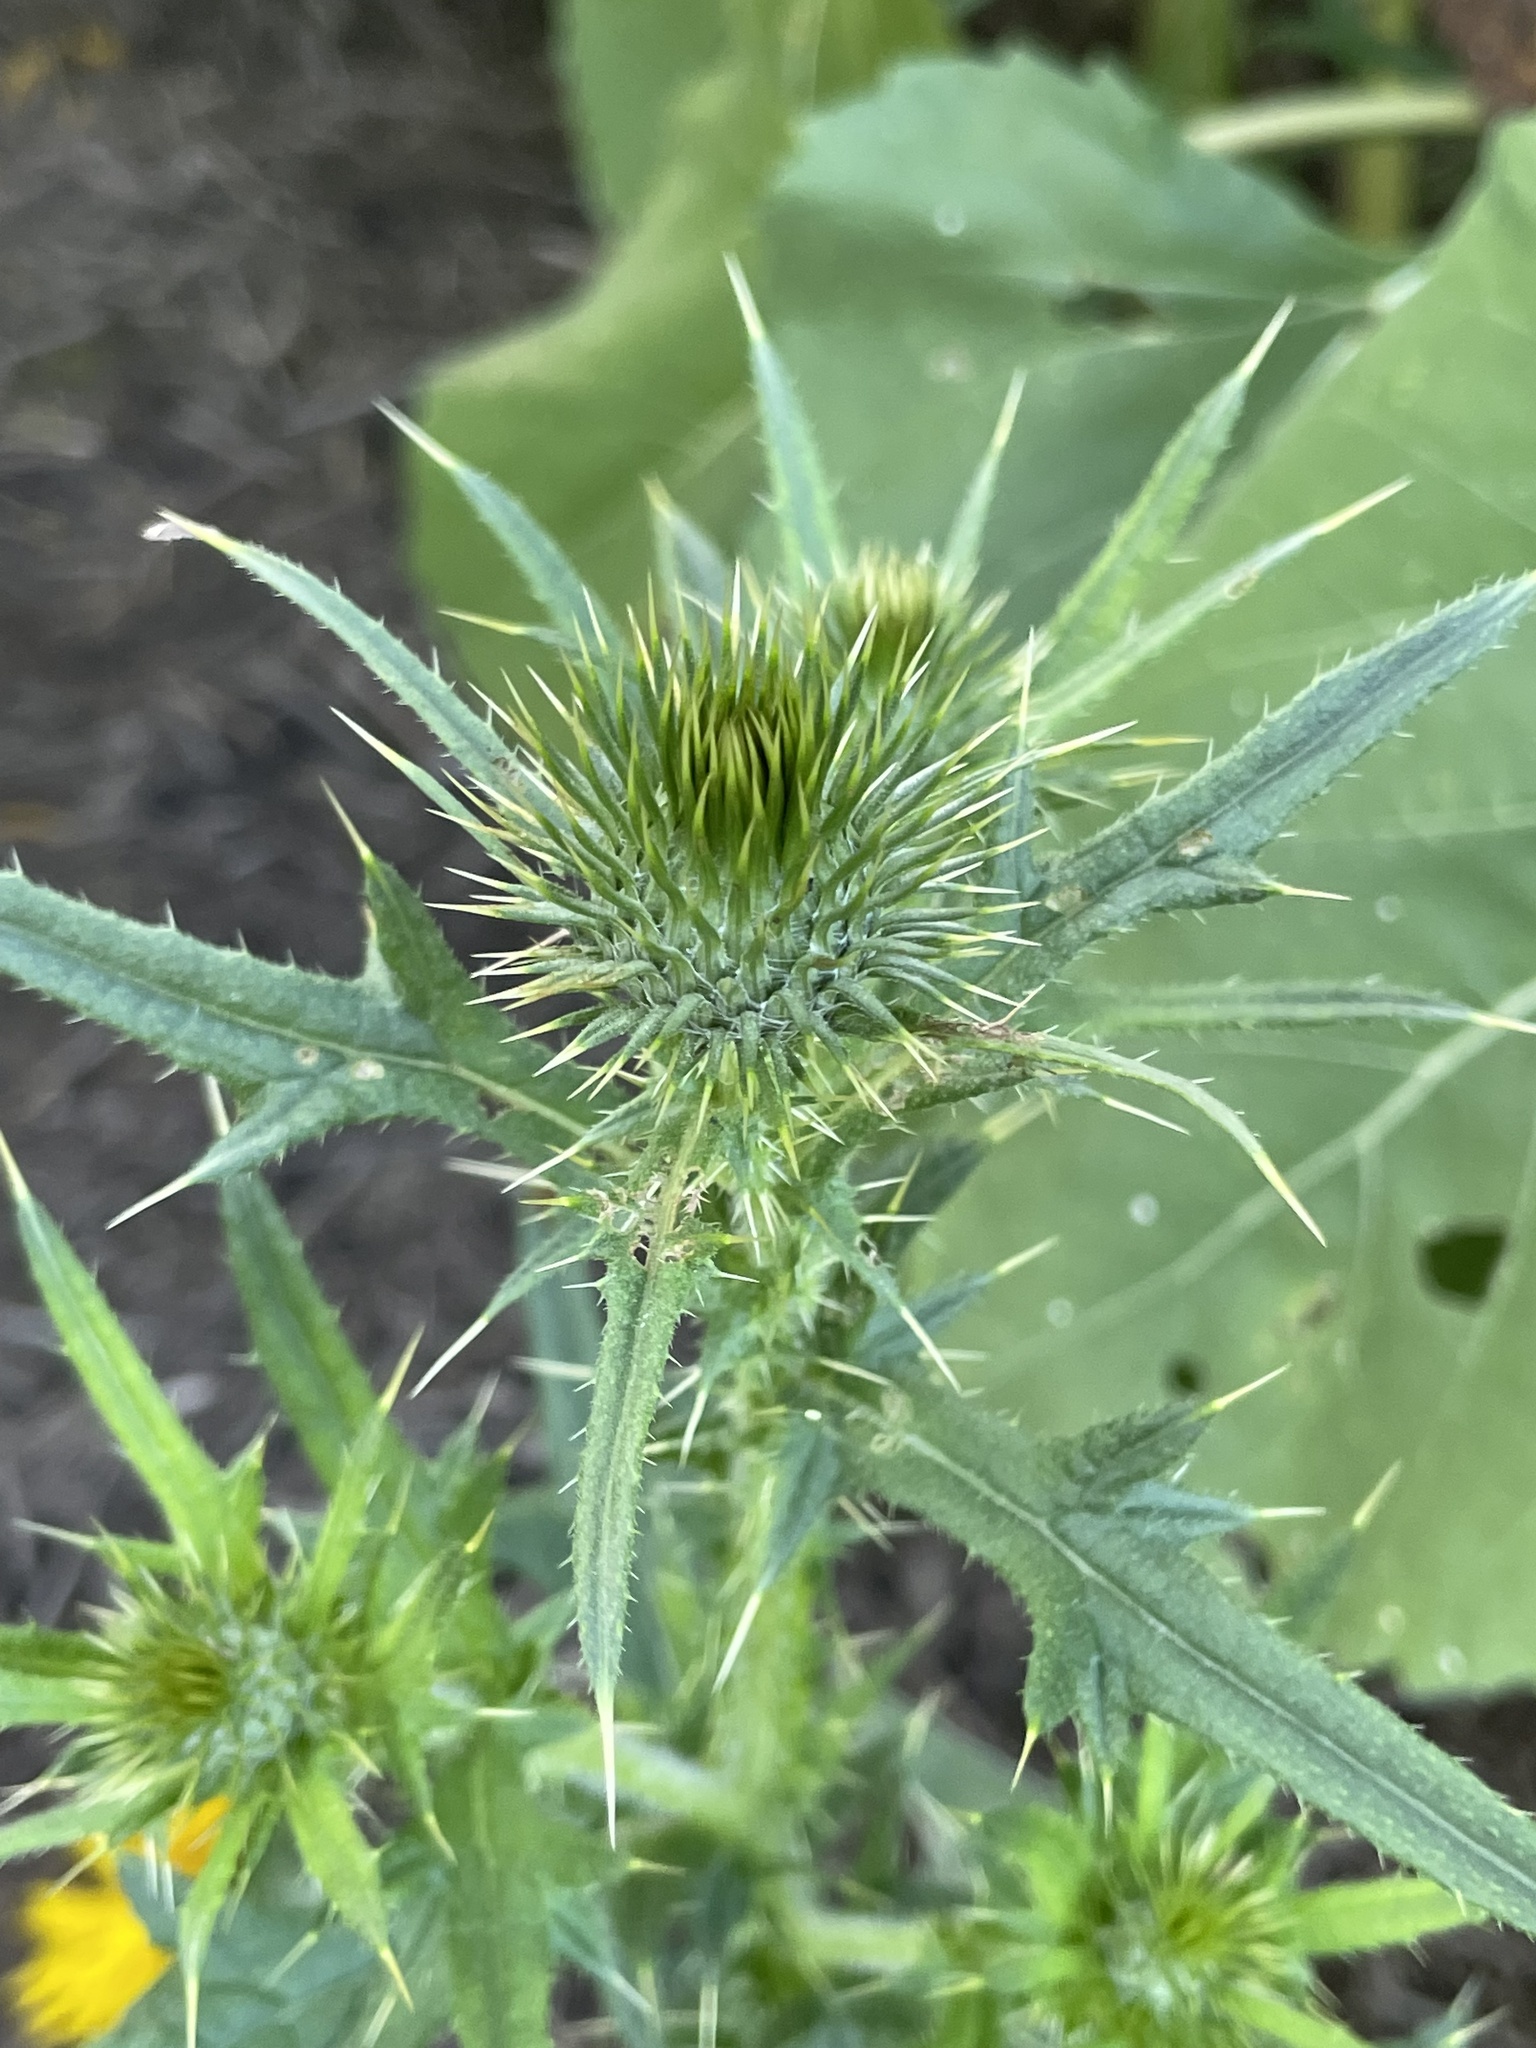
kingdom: Plantae
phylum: Tracheophyta
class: Magnoliopsida
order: Asterales
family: Asteraceae
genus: Cirsium
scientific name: Cirsium vulgare
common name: Bull thistle
